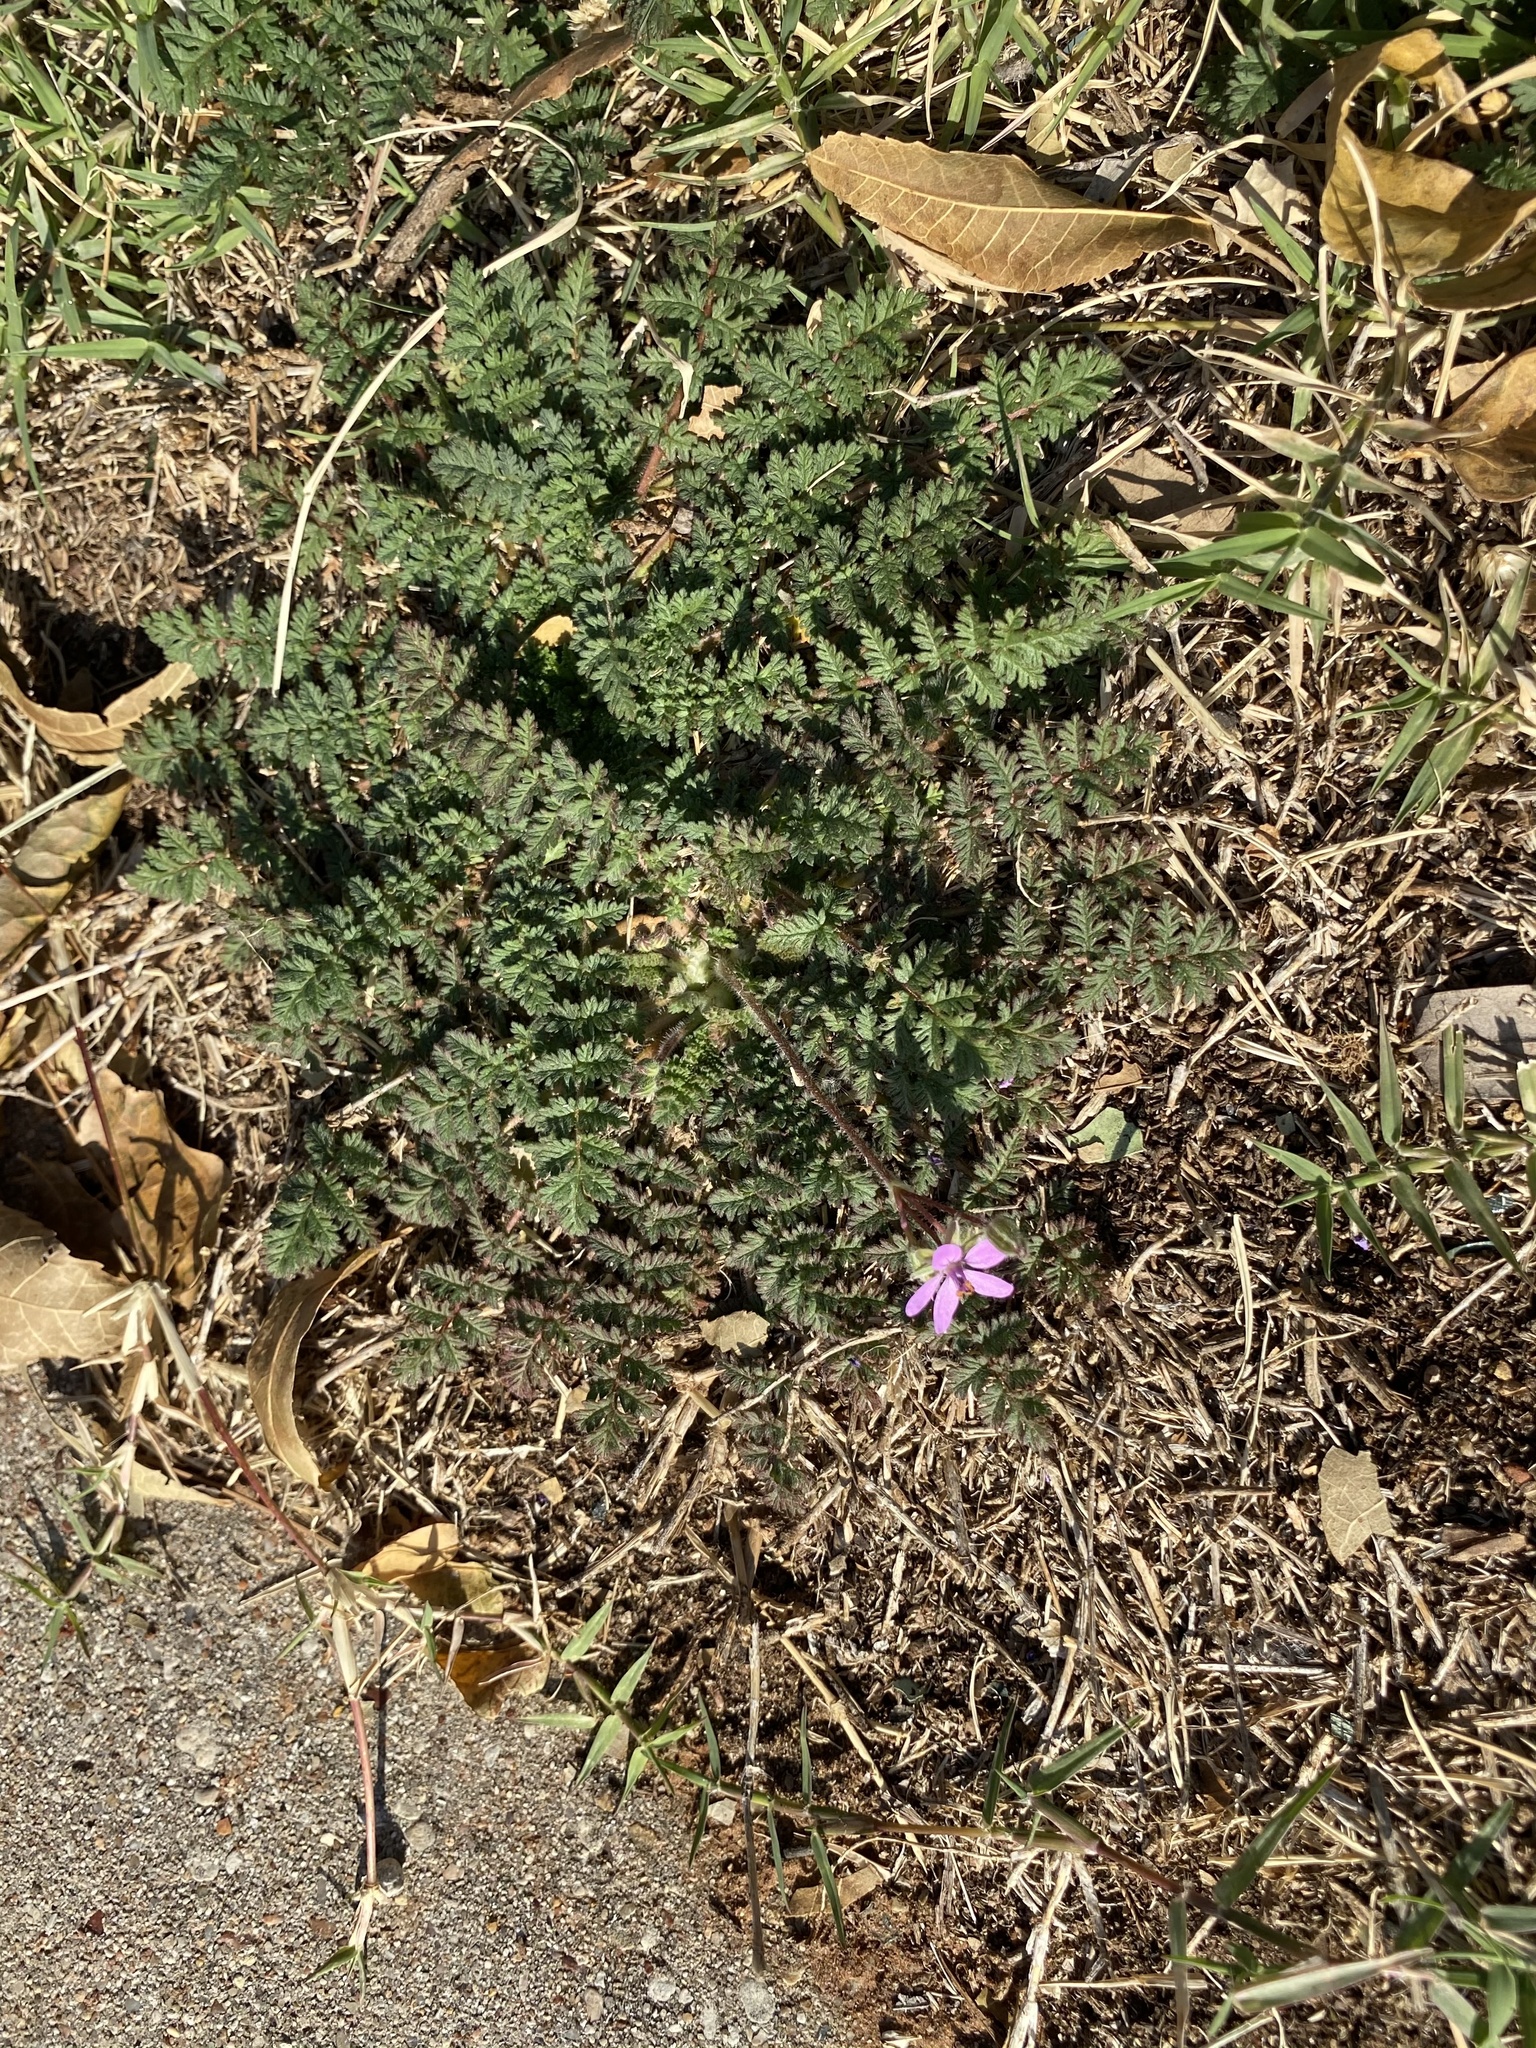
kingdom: Plantae
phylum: Tracheophyta
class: Magnoliopsida
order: Geraniales
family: Geraniaceae
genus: Erodium
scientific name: Erodium cicutarium
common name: Common stork's-bill
